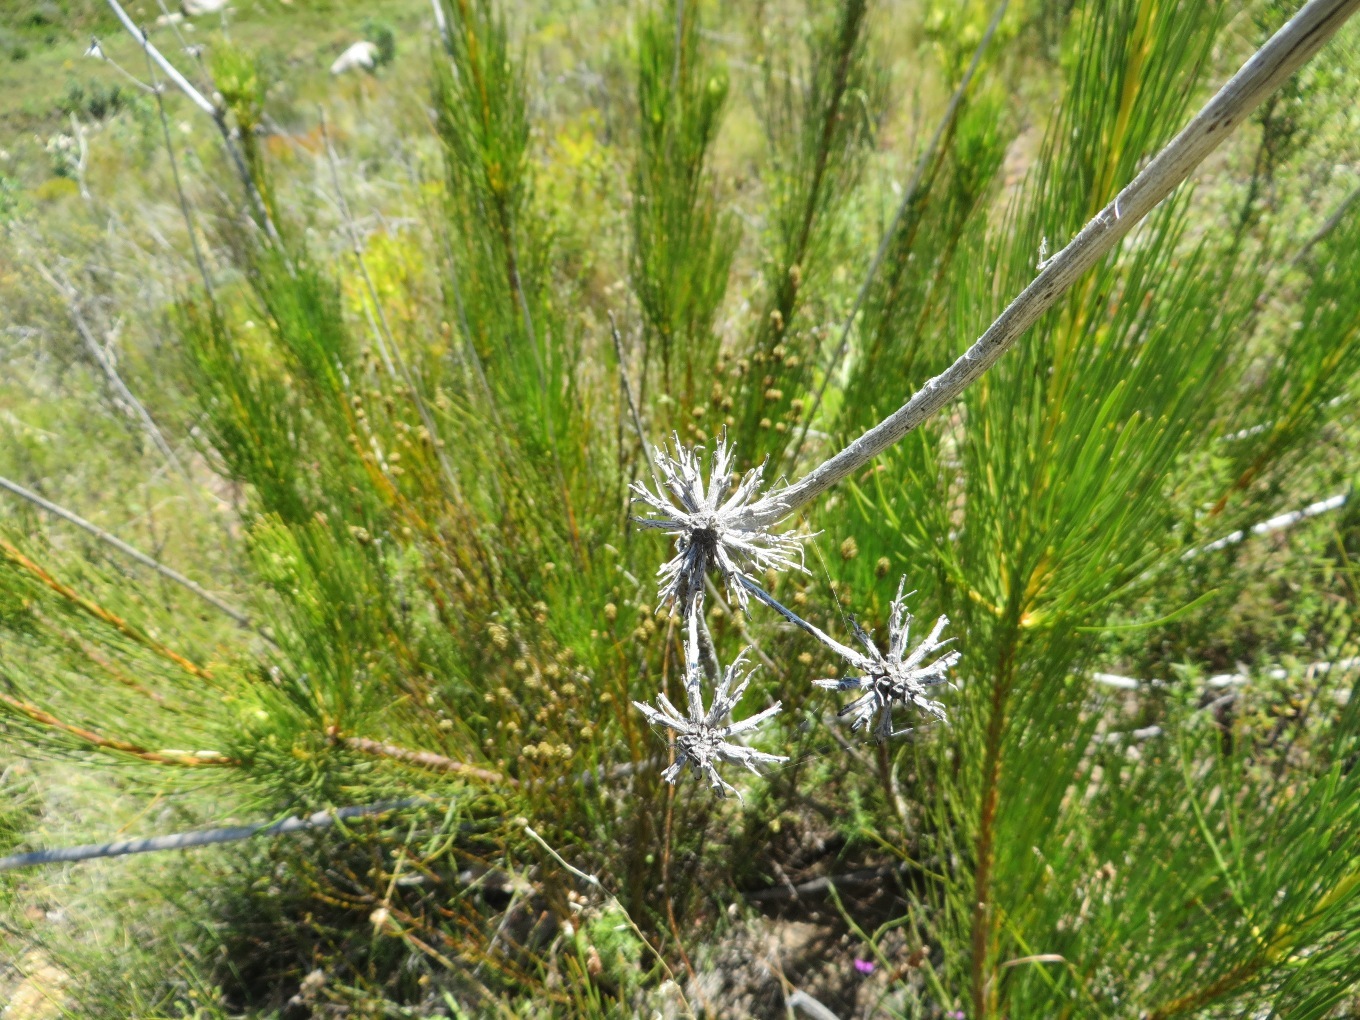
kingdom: Plantae
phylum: Tracheophyta
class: Magnoliopsida
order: Proteales
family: Proteaceae
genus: Aulax
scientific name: Aulax pallasia
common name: Needle-leaf featherbush
